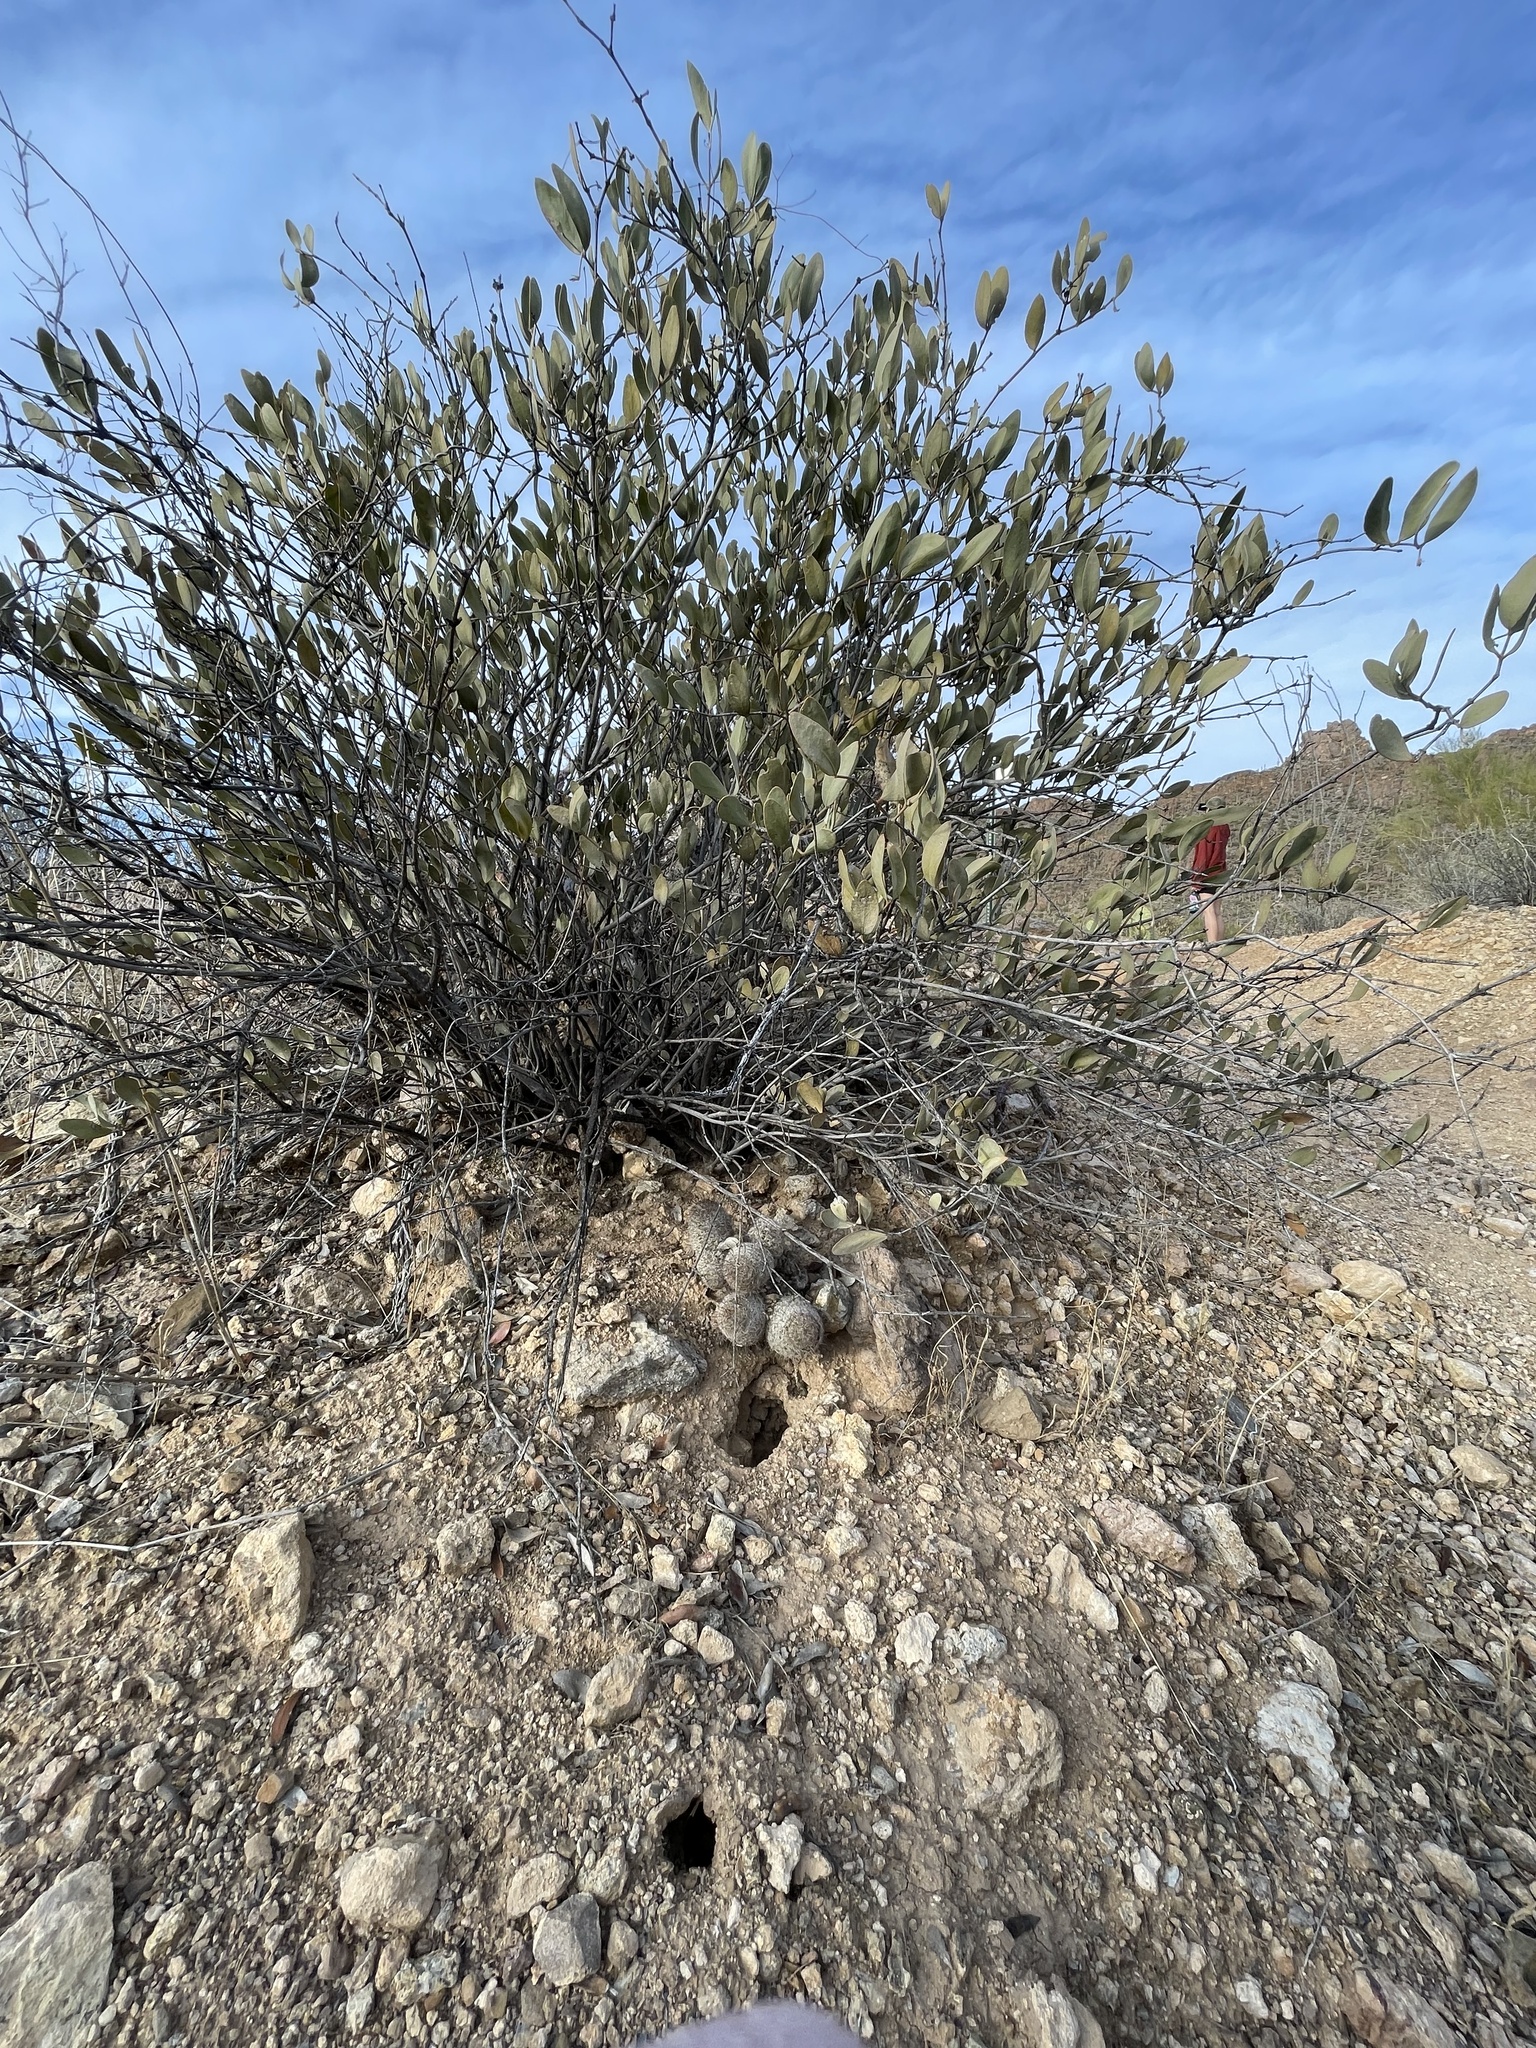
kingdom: Plantae
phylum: Tracheophyta
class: Magnoliopsida
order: Caryophyllales
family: Cactaceae
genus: Cochemiea
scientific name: Cochemiea grahamii
